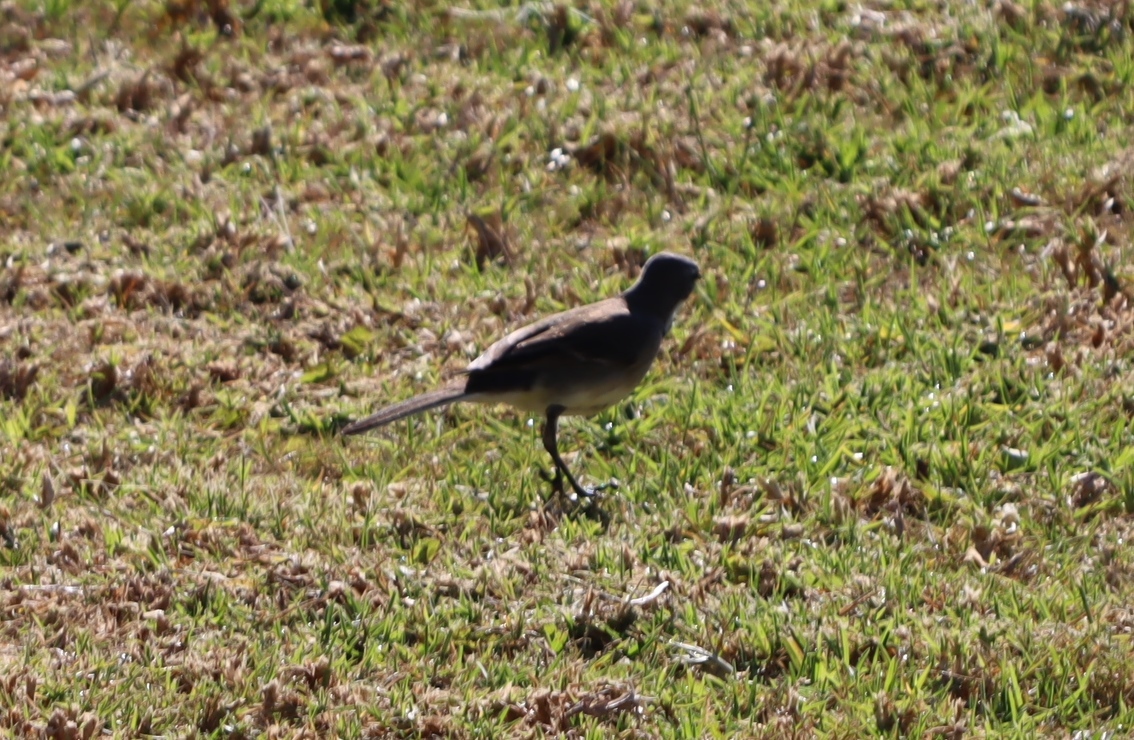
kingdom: Animalia
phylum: Chordata
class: Aves
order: Passeriformes
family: Motacillidae
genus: Motacilla
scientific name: Motacilla capensis
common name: Cape wagtail
